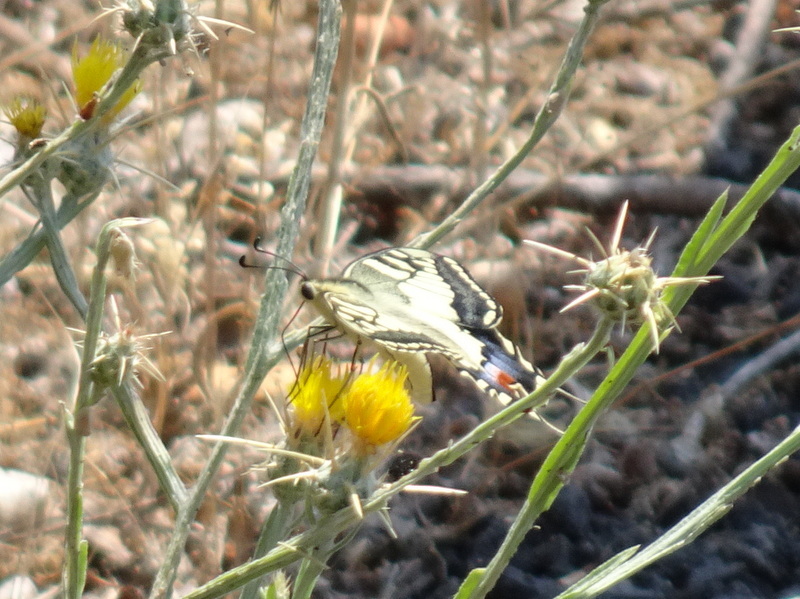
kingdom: Animalia
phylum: Arthropoda
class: Insecta
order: Lepidoptera
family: Papilionidae
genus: Papilio
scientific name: Papilio machaon
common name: Swallowtail
